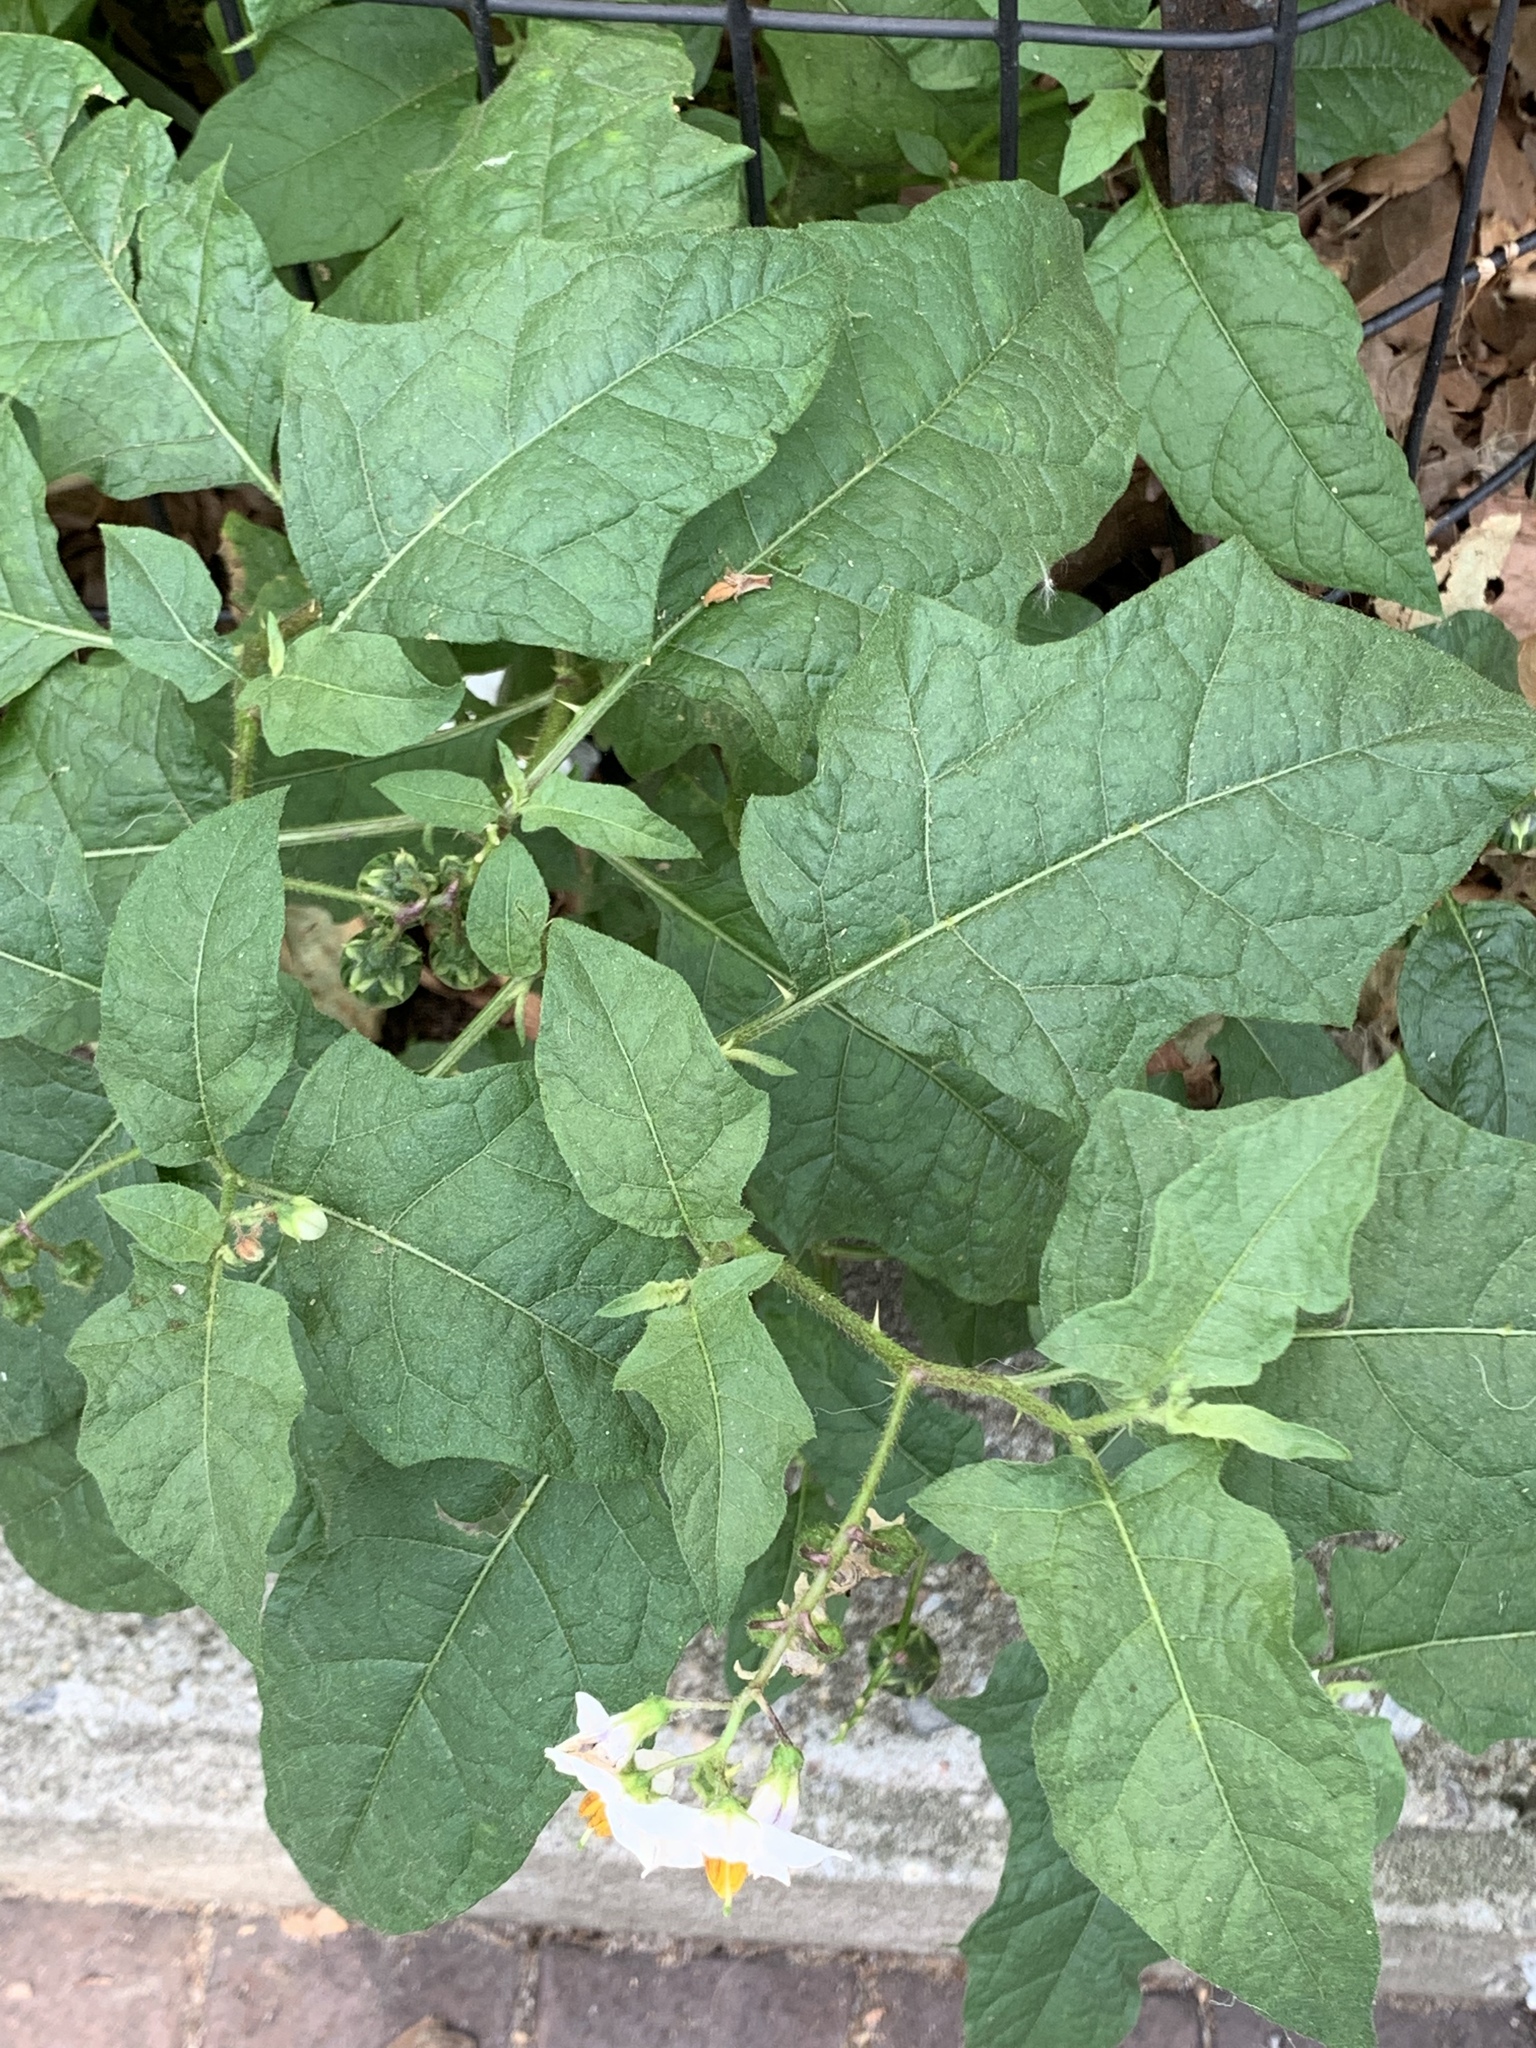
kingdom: Plantae
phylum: Tracheophyta
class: Magnoliopsida
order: Solanales
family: Solanaceae
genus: Solanum
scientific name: Solanum carolinense
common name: Horse-nettle
